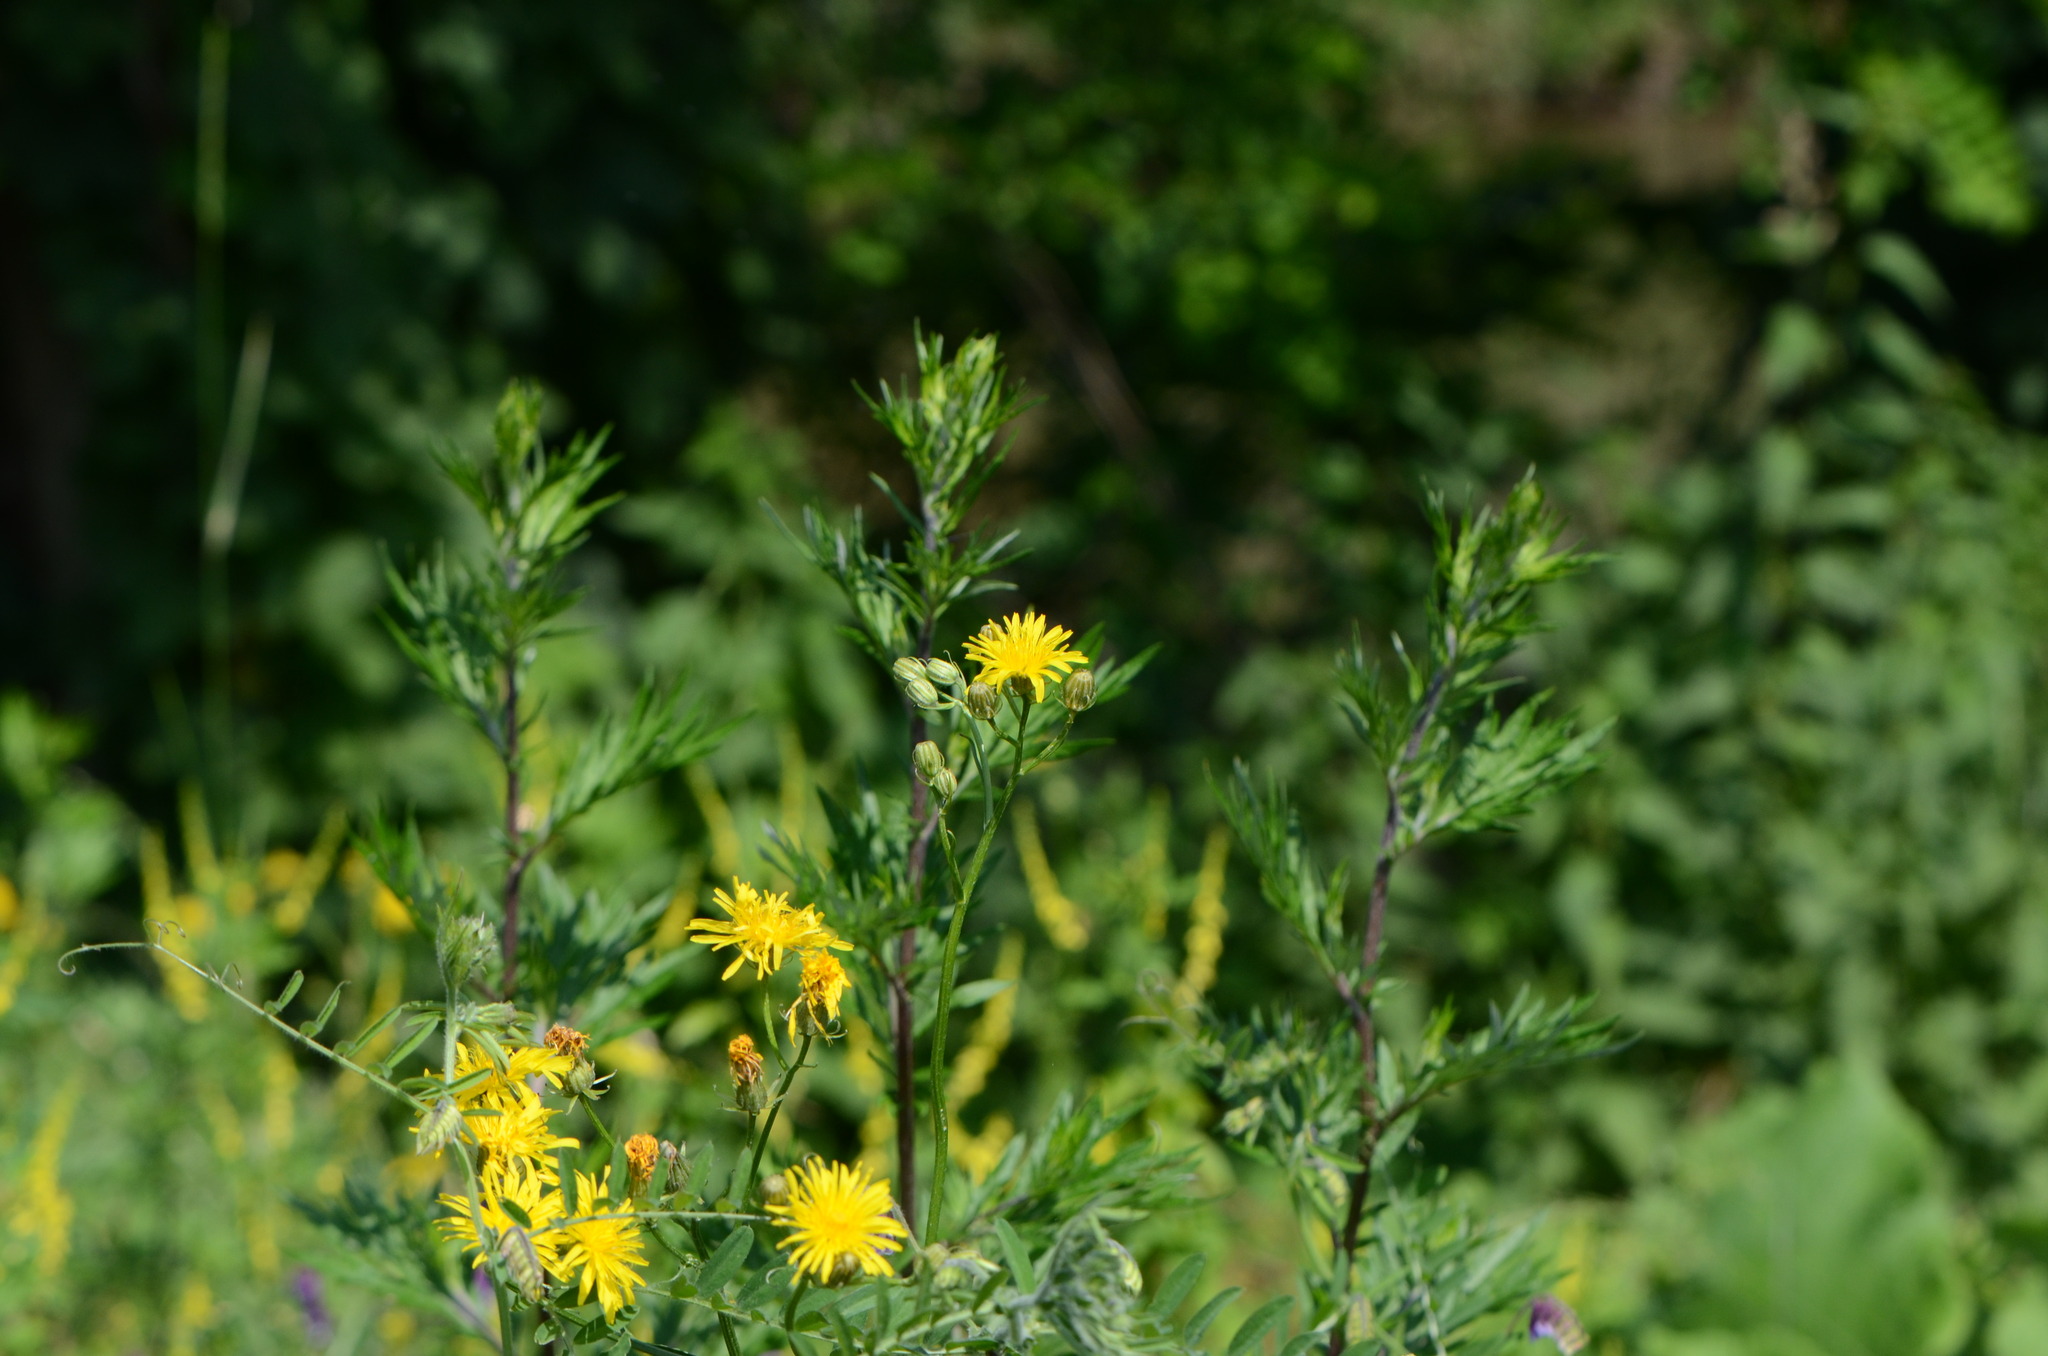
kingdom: Plantae
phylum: Tracheophyta
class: Magnoliopsida
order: Asterales
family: Asteraceae
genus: Crepis
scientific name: Crepis biennis
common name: Rough hawk's-beard
